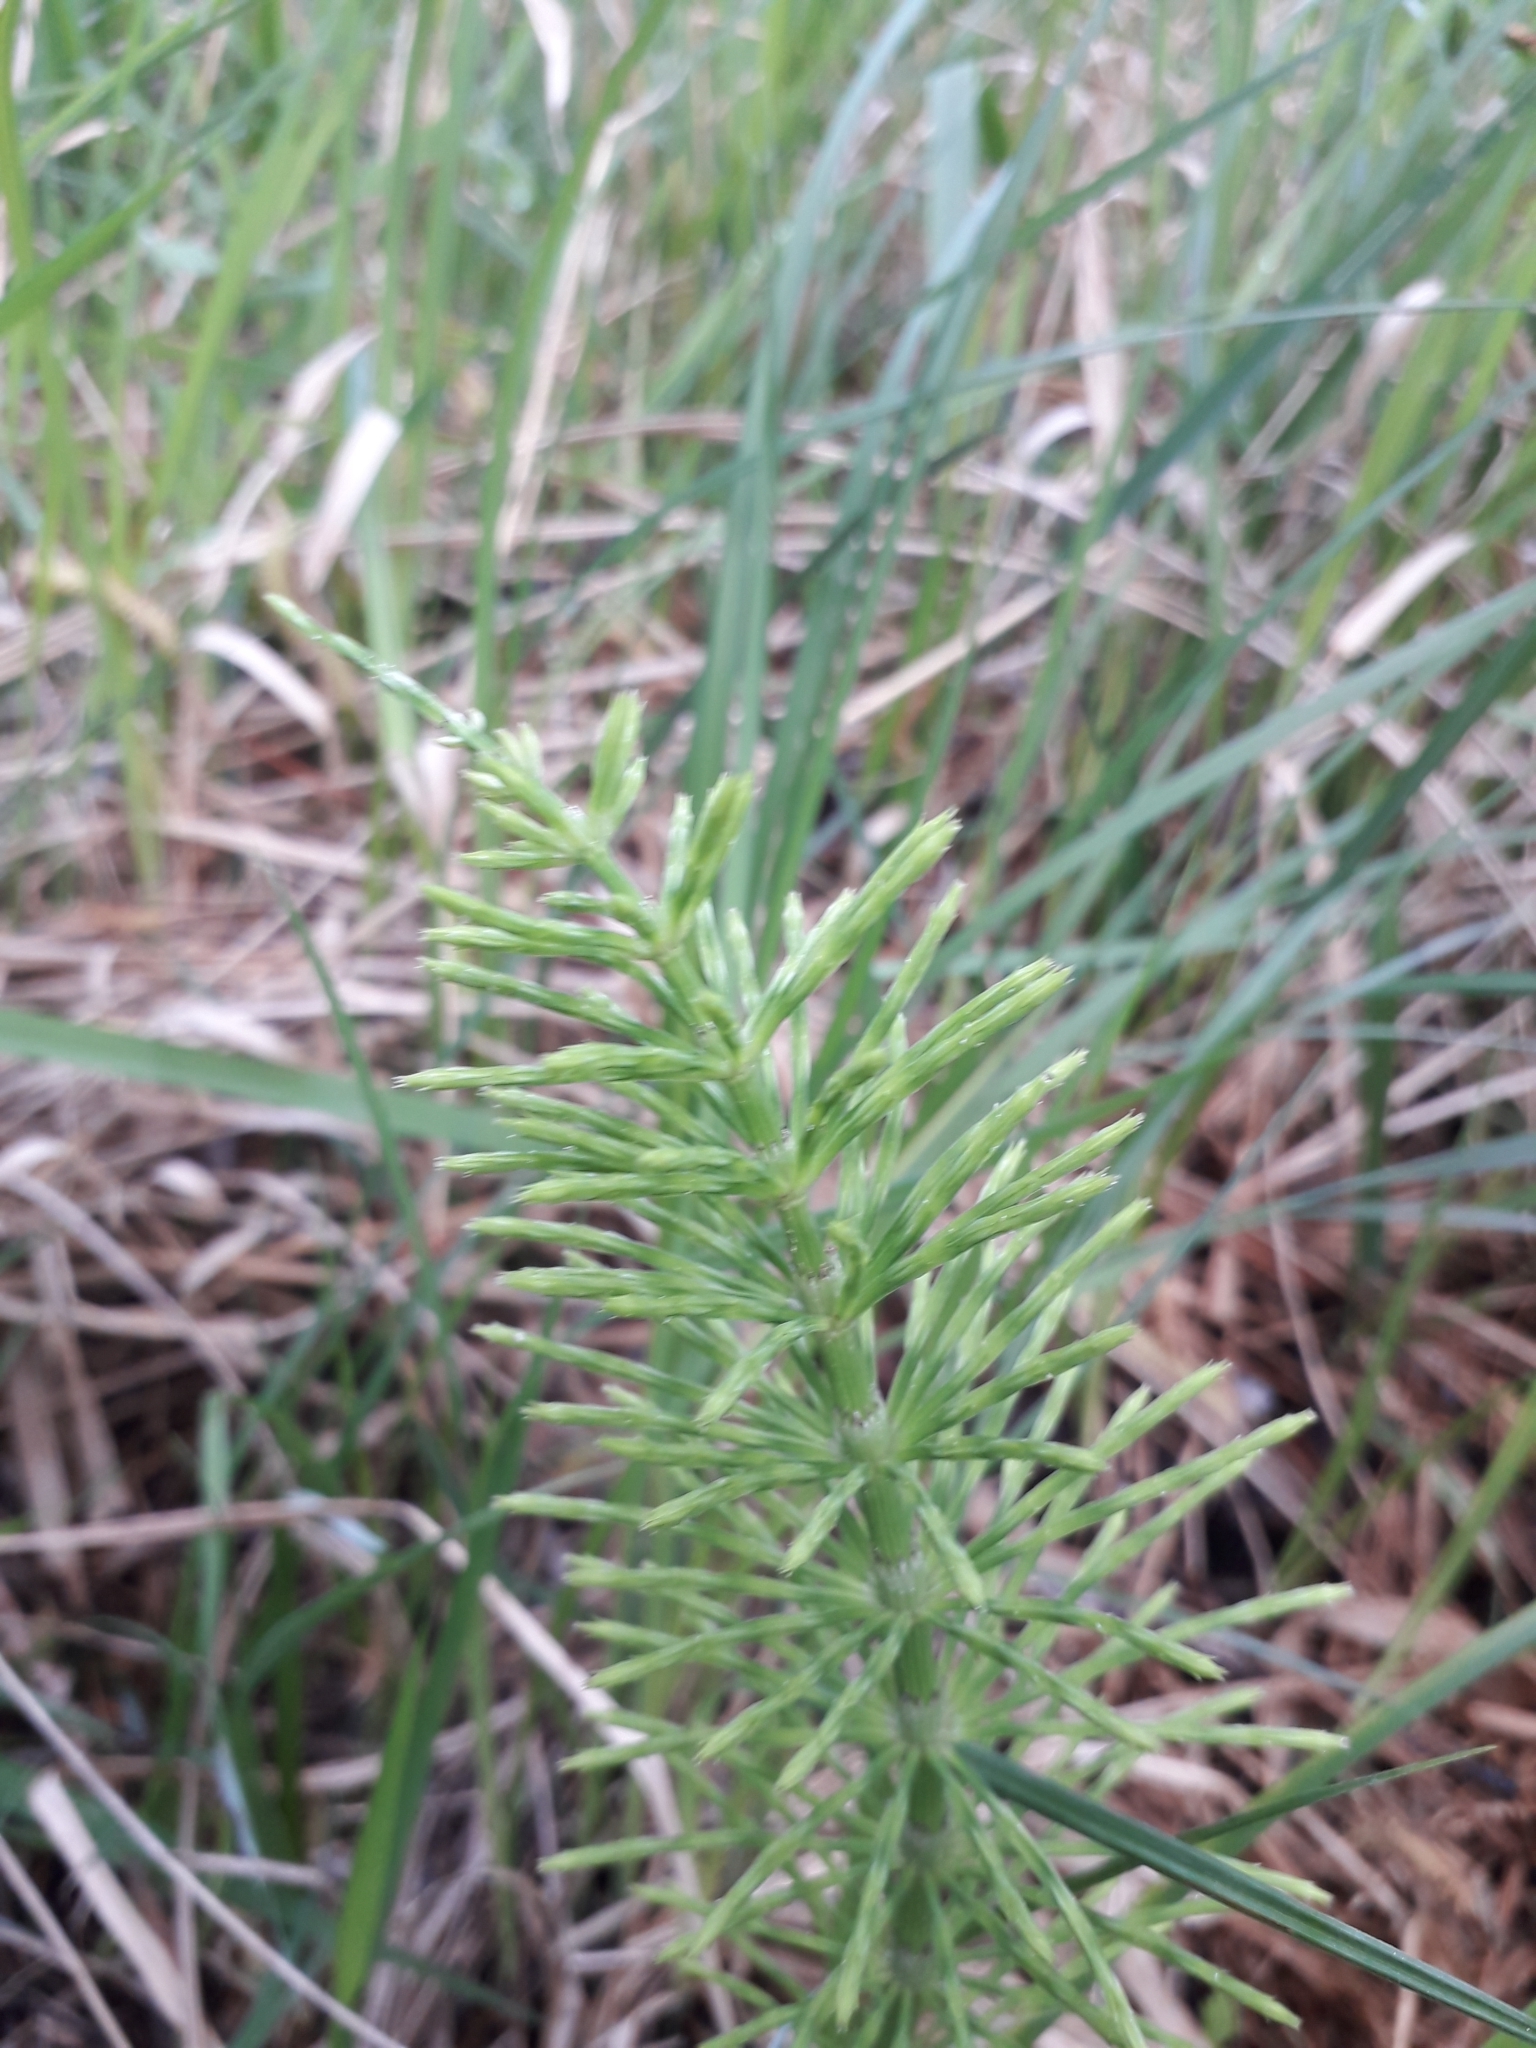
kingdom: Plantae
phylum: Tracheophyta
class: Polypodiopsida
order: Equisetales
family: Equisetaceae
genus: Equisetum
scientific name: Equisetum arvense
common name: Field horsetail
